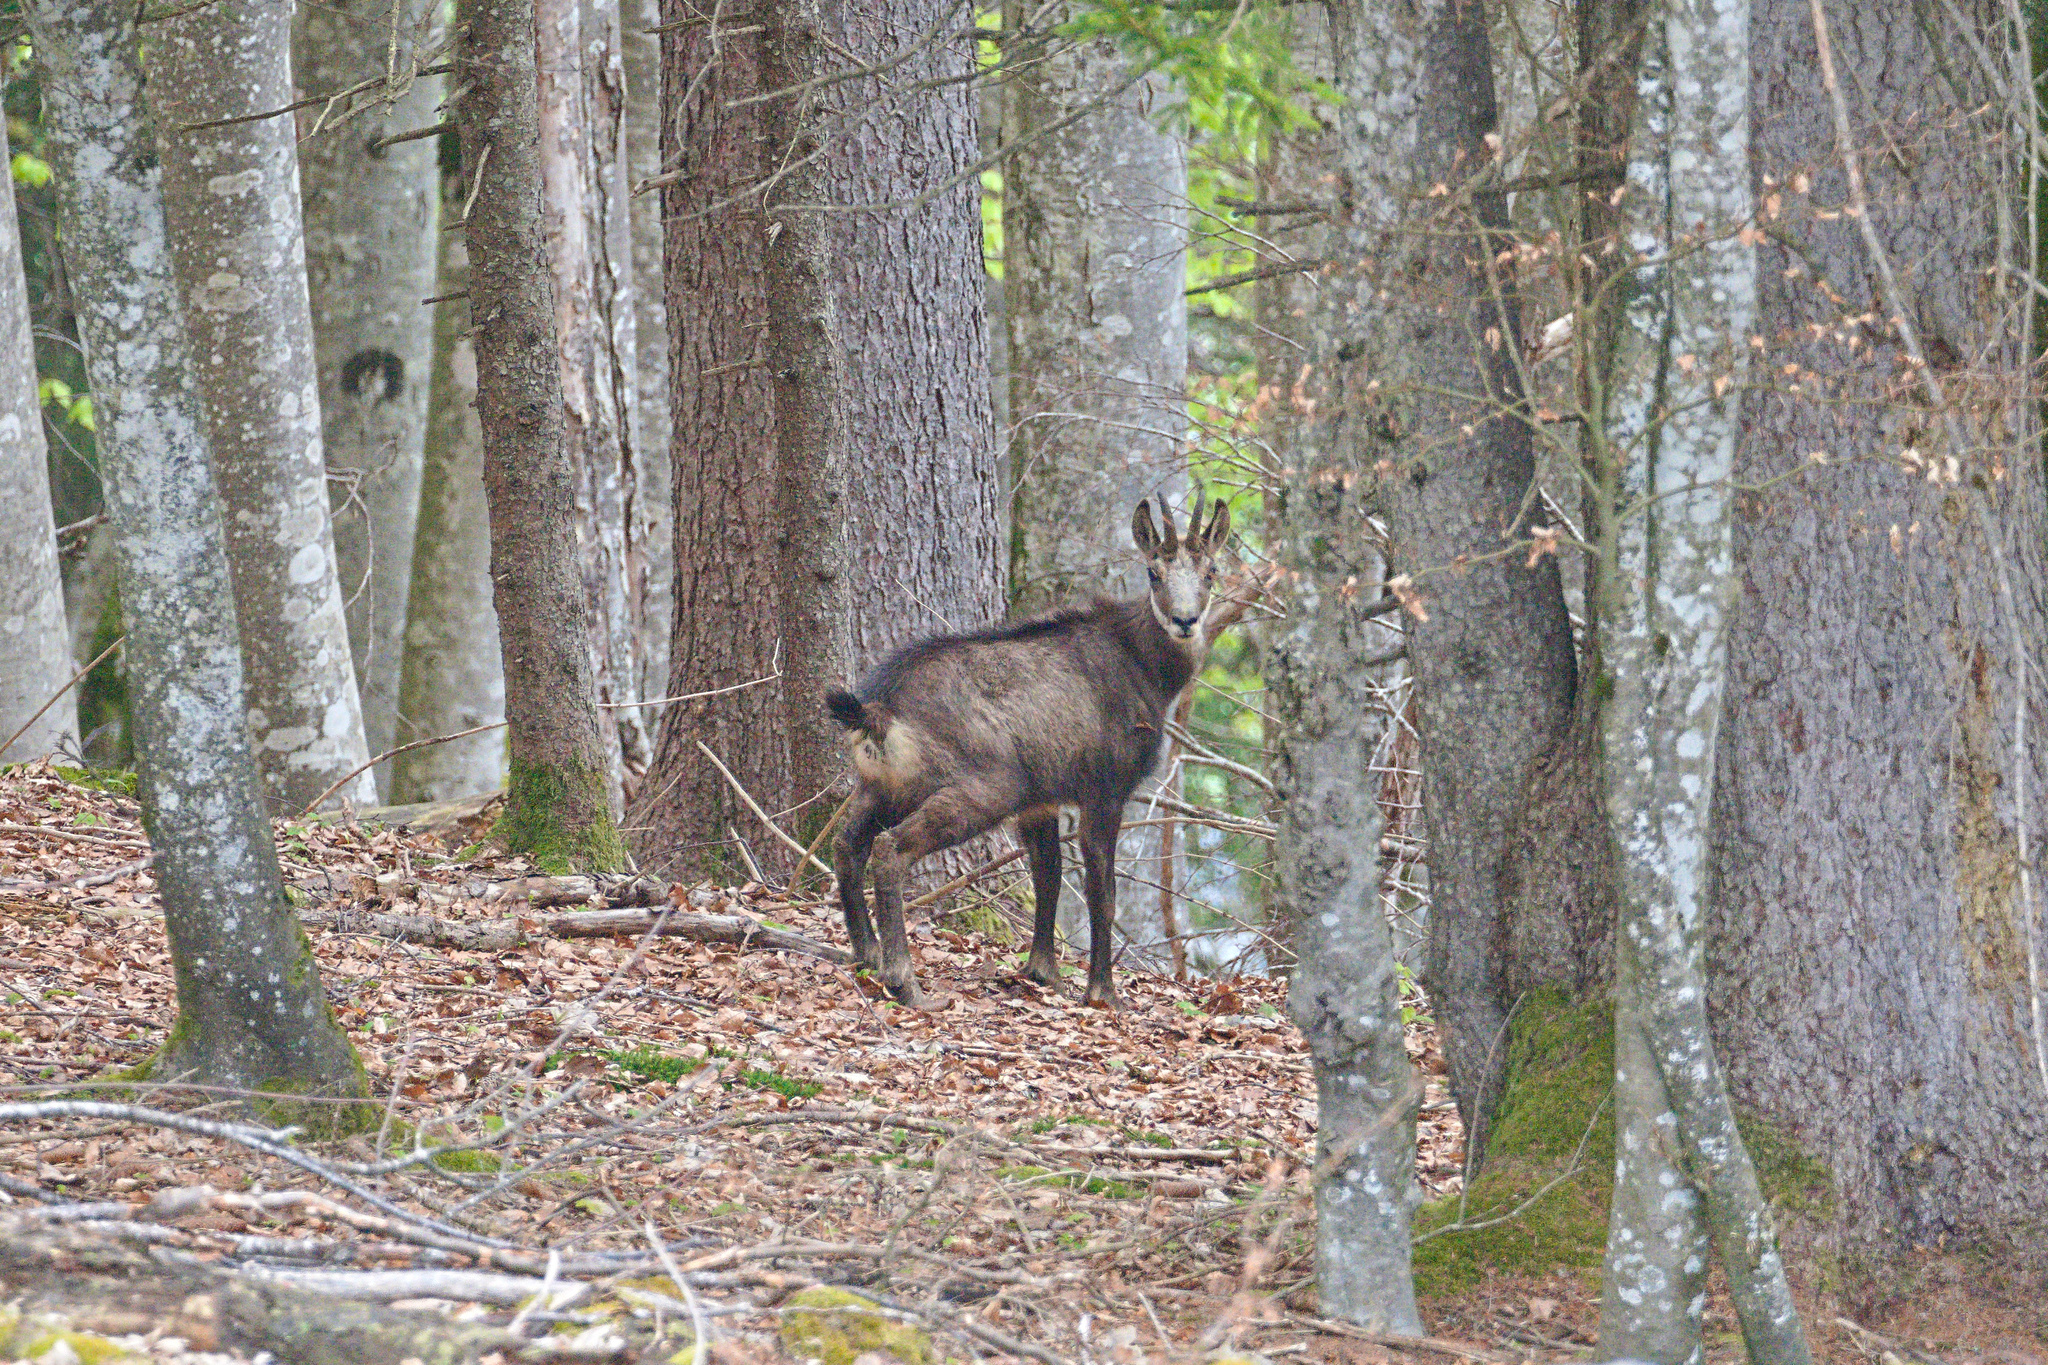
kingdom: Animalia
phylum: Chordata
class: Mammalia
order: Artiodactyla
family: Bovidae
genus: Rupicapra
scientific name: Rupicapra rupicapra
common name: Chamois
